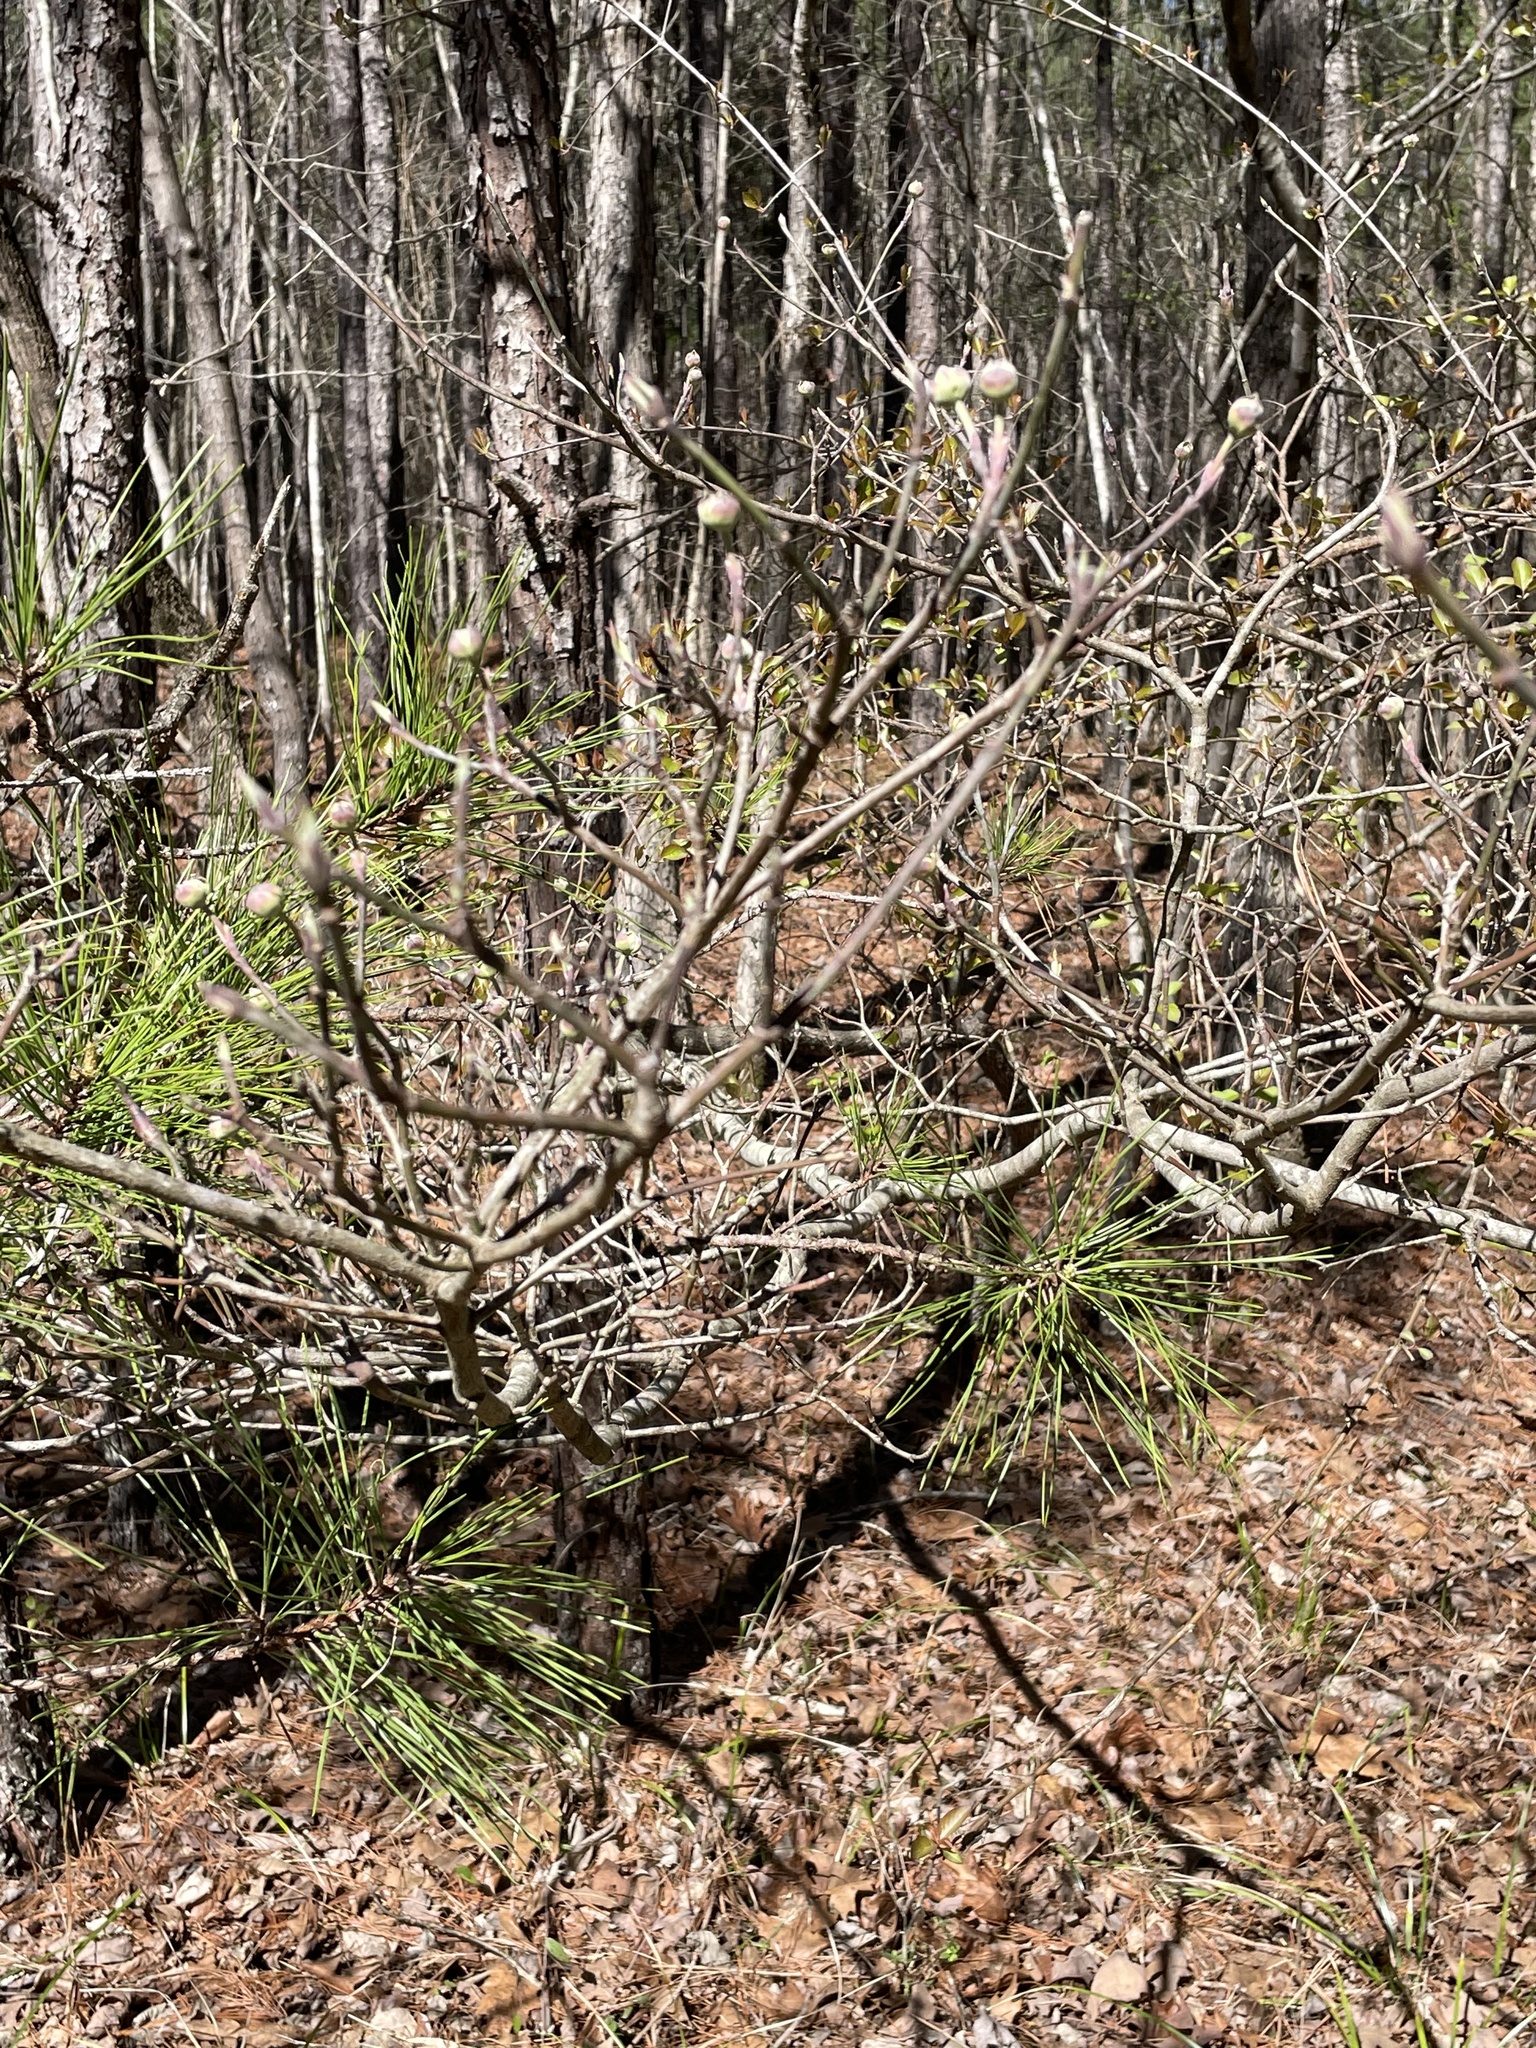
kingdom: Plantae
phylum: Tracheophyta
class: Magnoliopsida
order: Cornales
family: Cornaceae
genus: Cornus
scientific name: Cornus florida
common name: Flowering dogwood
